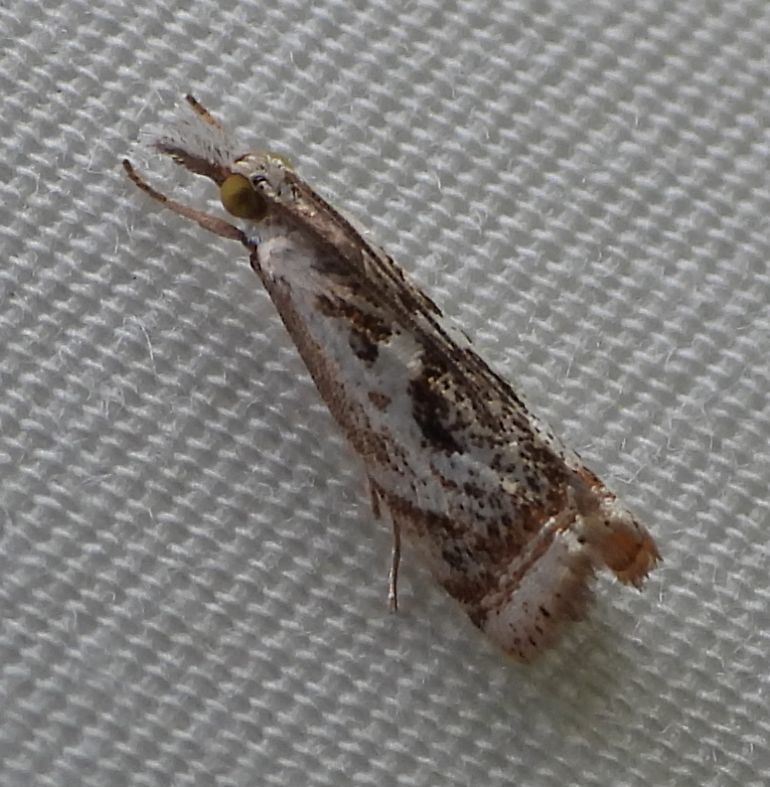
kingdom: Animalia
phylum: Arthropoda
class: Insecta
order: Lepidoptera
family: Crambidae
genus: Microcrambus
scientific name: Microcrambus elegans
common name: Elegant grass-veneer
